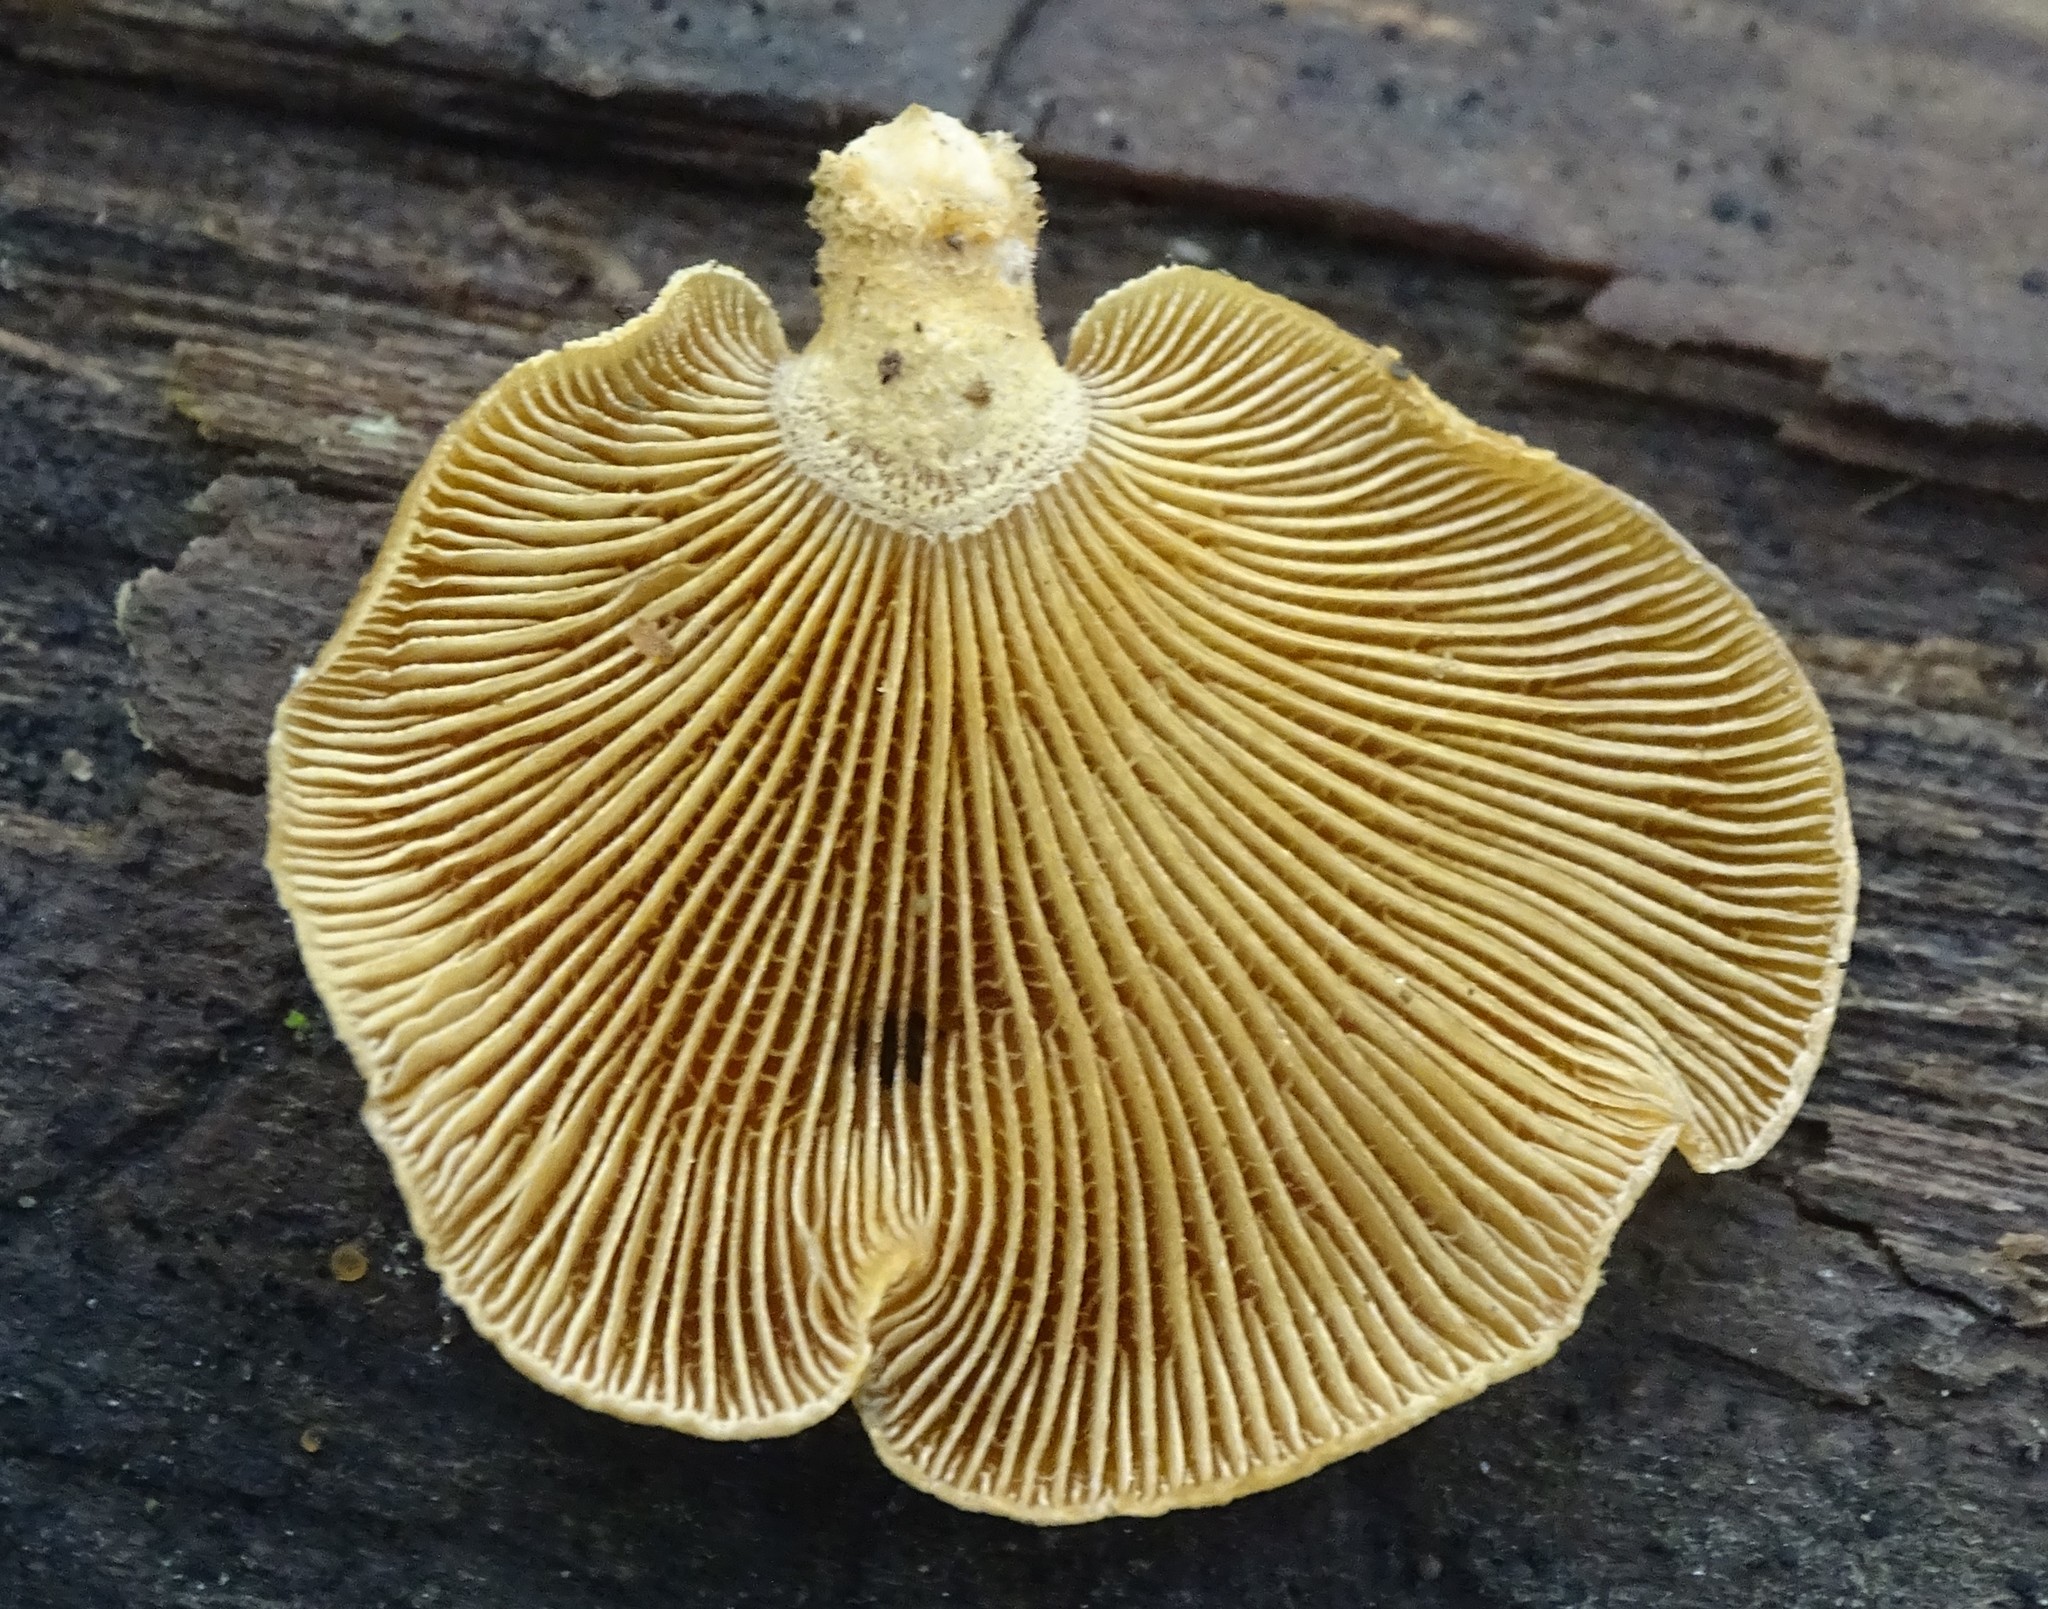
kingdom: Fungi
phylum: Basidiomycota
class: Agaricomycetes
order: Agaricales
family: Mycenaceae
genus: Panellus
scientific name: Panellus stipticus
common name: Bitter oysterling
